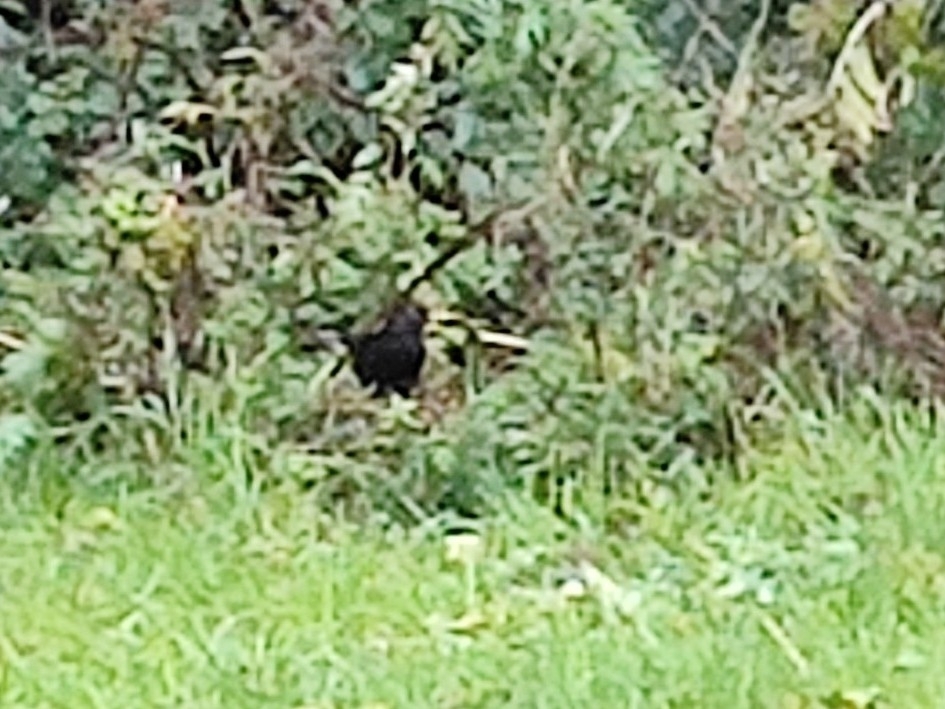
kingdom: Animalia
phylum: Chordata
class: Aves
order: Passeriformes
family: Turdidae
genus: Turdus
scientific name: Turdus merula
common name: Common blackbird
